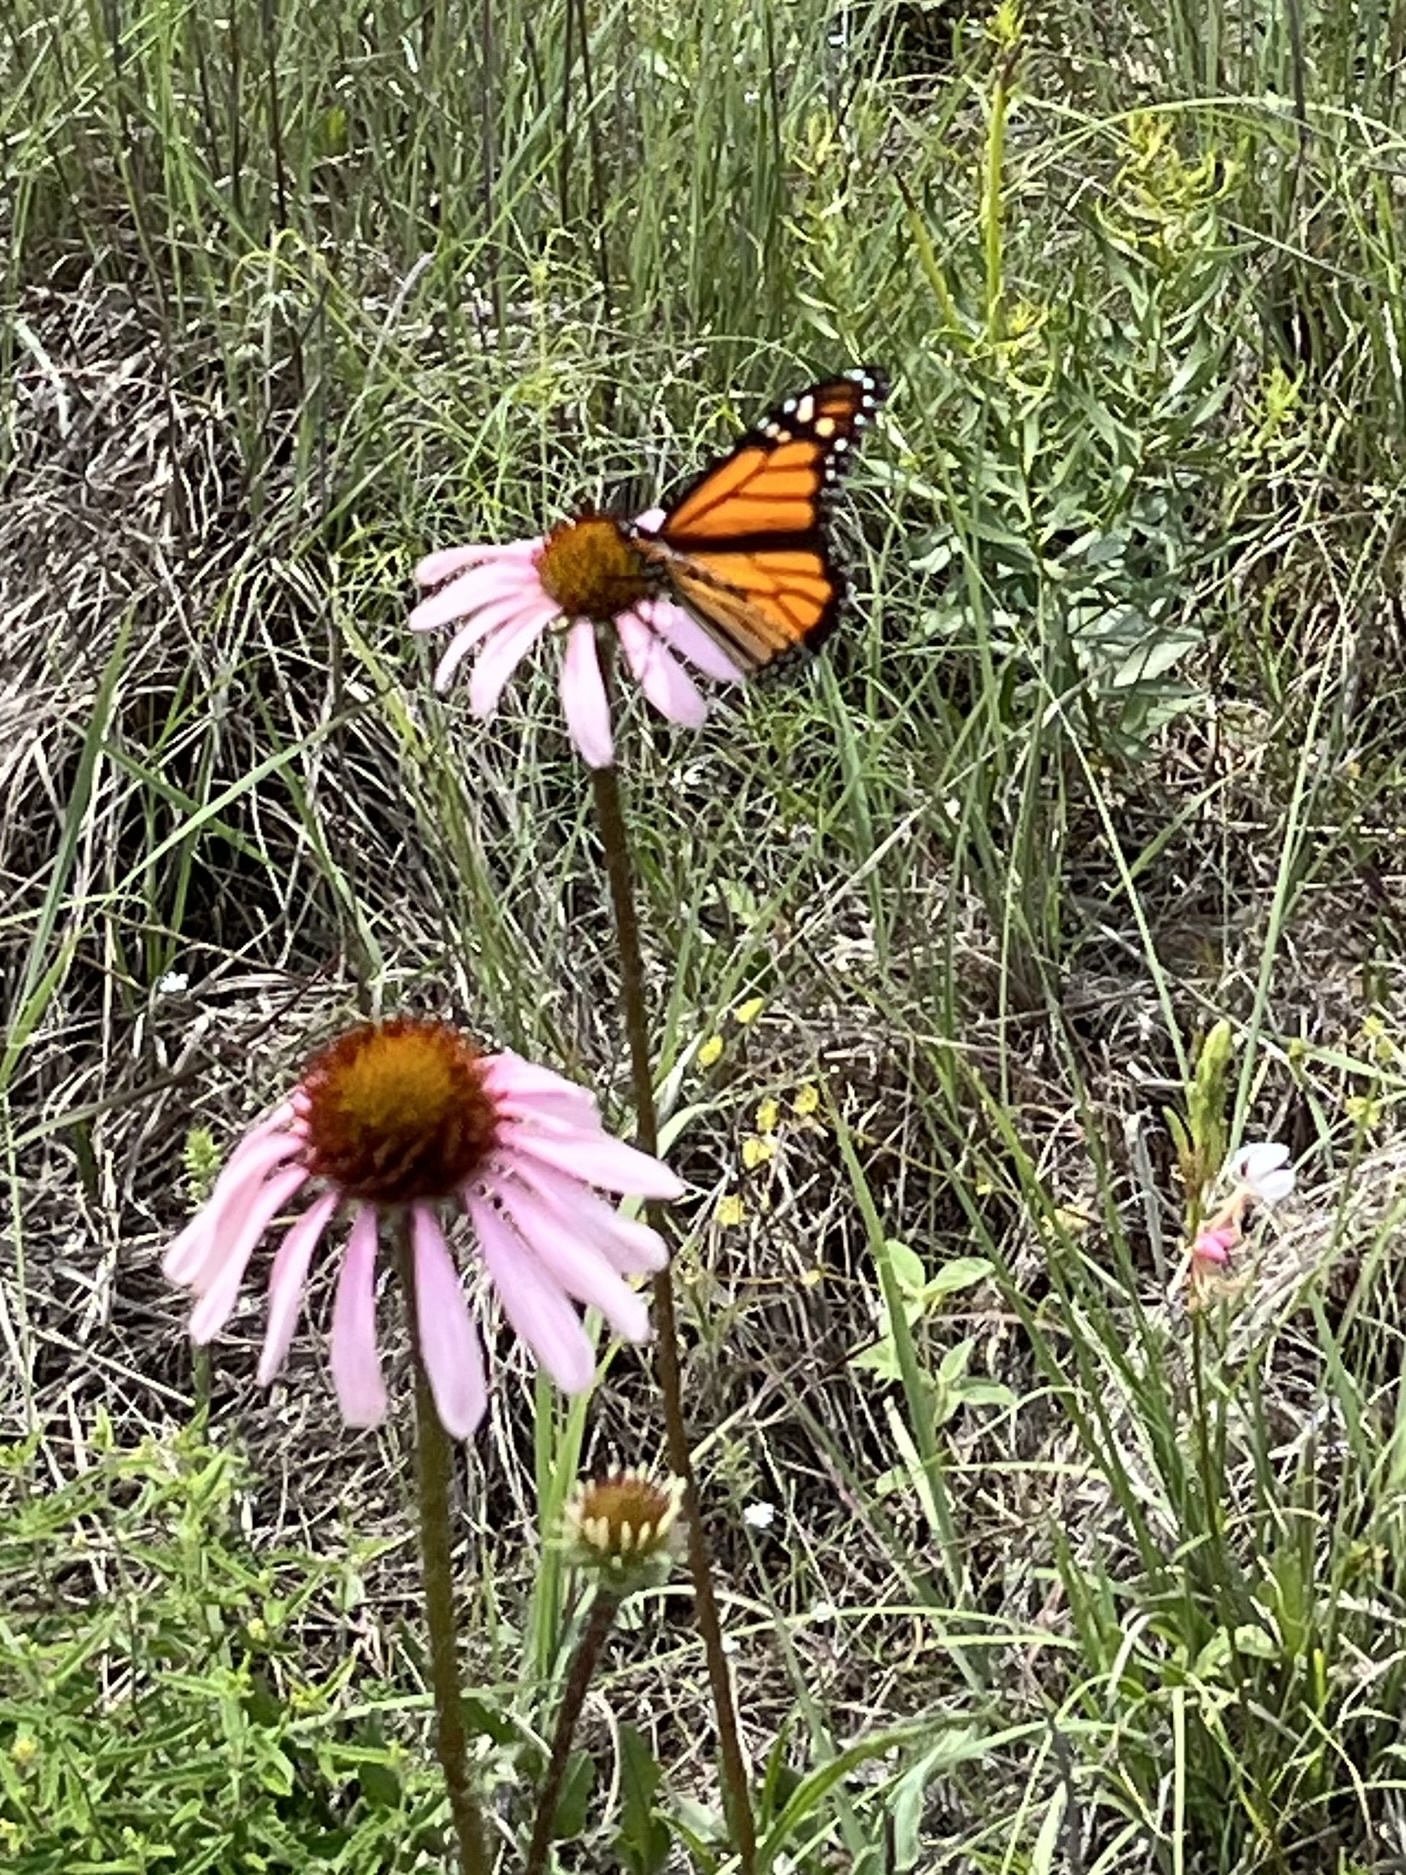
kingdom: Animalia
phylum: Arthropoda
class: Insecta
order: Lepidoptera
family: Nymphalidae
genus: Danaus
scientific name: Danaus plexippus
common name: Monarch
